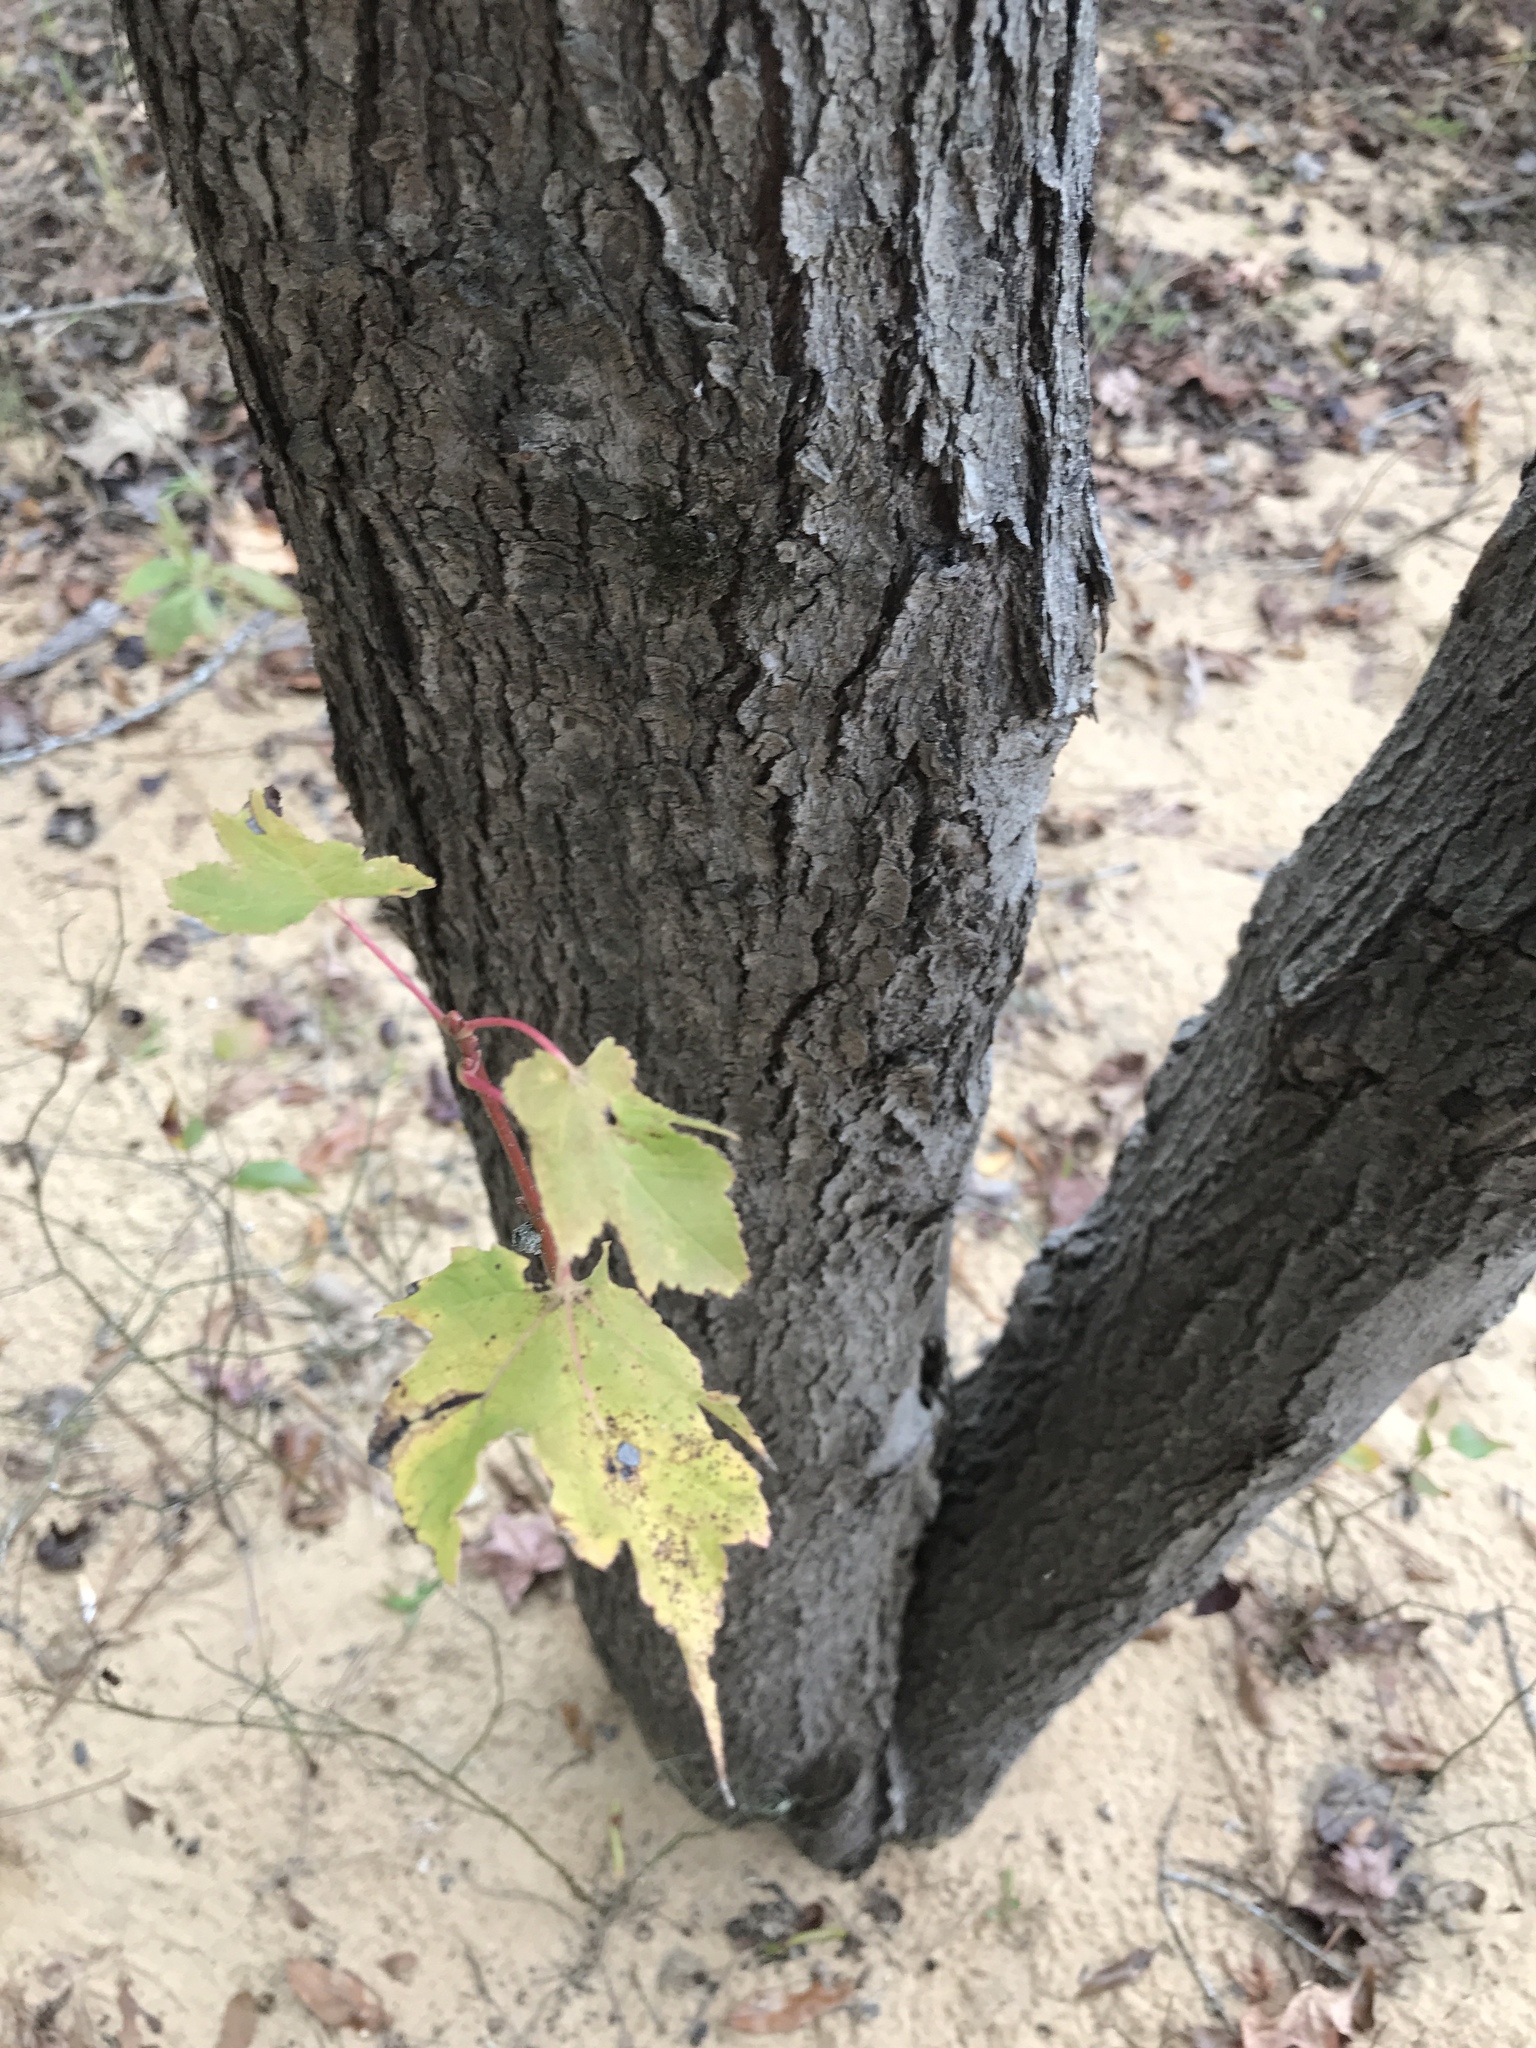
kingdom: Plantae
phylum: Tracheophyta
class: Magnoliopsida
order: Sapindales
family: Sapindaceae
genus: Acer
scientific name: Acer rubrum
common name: Red maple
